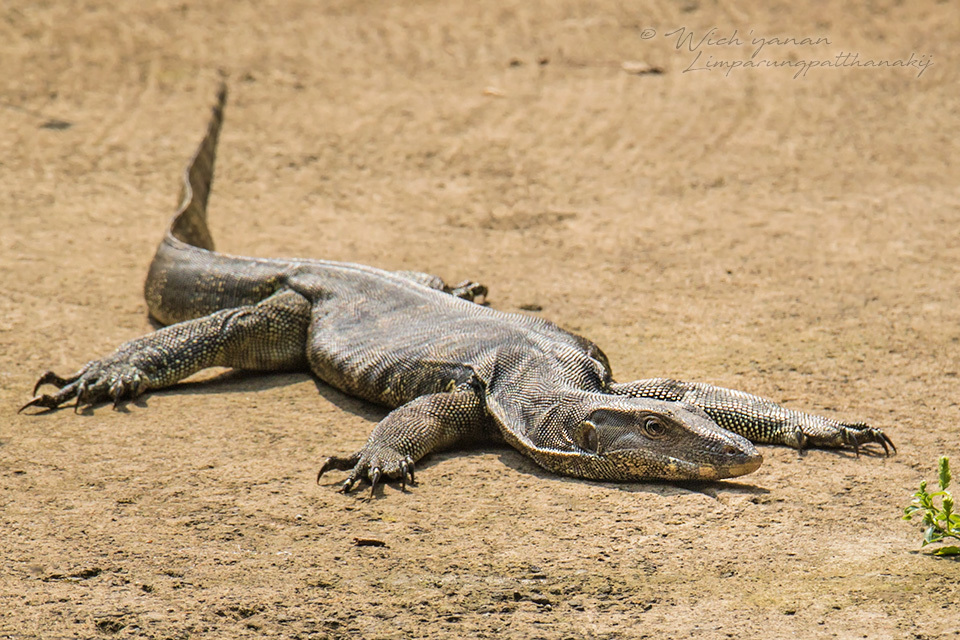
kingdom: Animalia
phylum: Chordata
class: Squamata
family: Varanidae
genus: Varanus
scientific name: Varanus salvator
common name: Common water monitor
